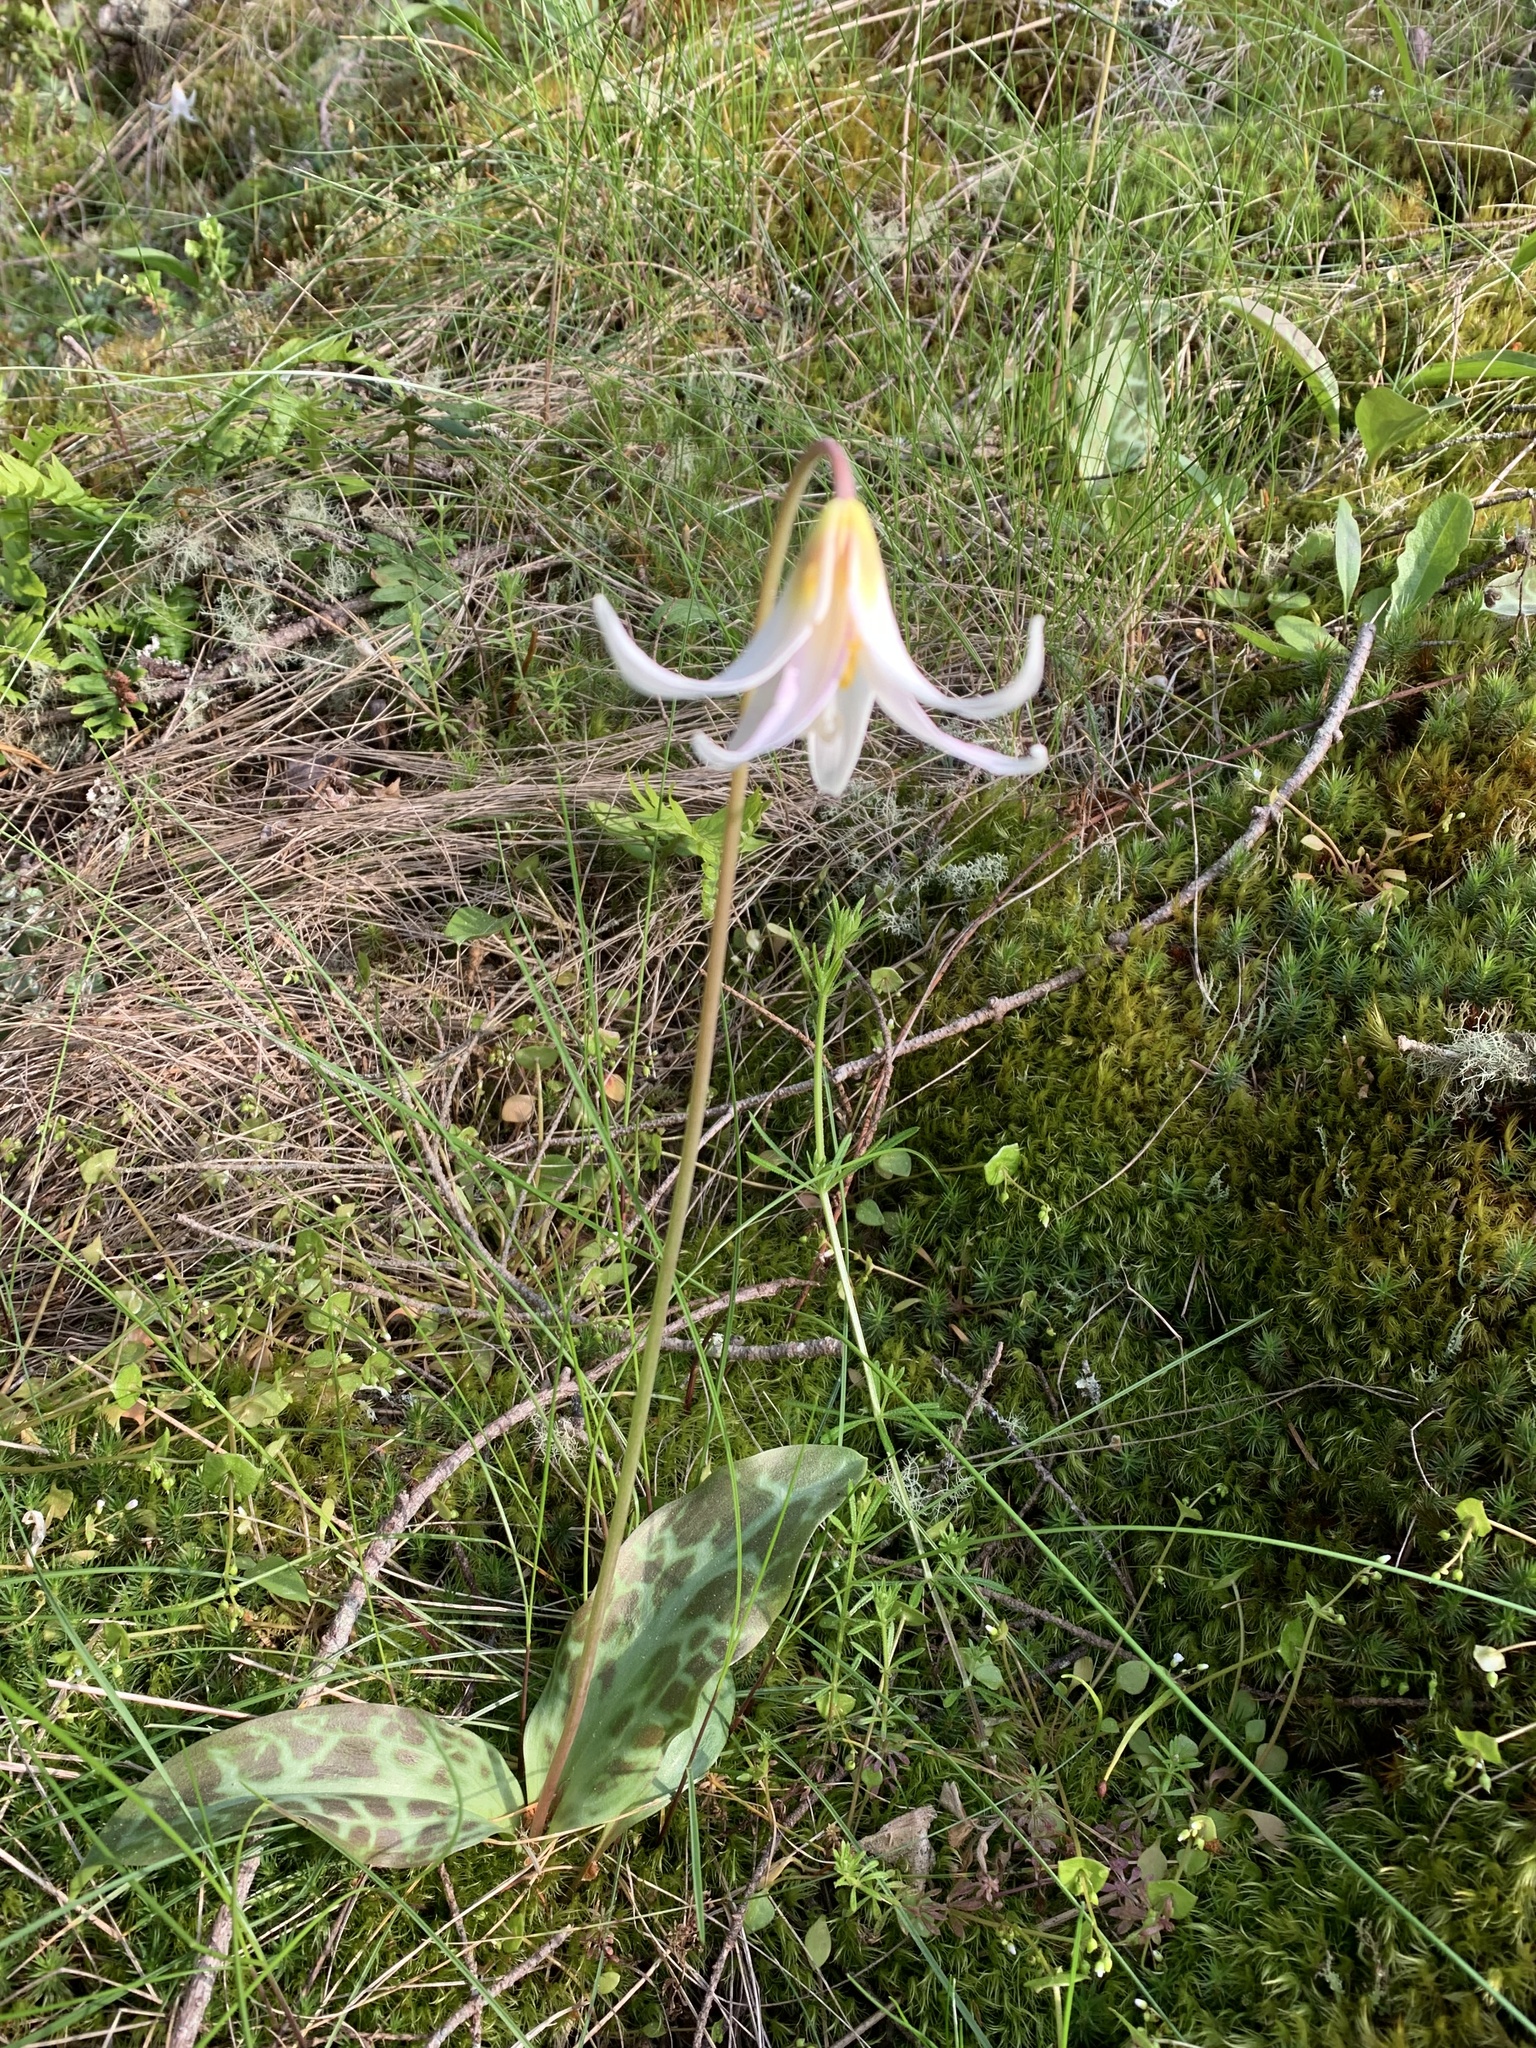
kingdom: Plantae
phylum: Tracheophyta
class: Liliopsida
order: Liliales
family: Liliaceae
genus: Erythronium
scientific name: Erythronium oregonum
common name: Giant adder's-tongue
